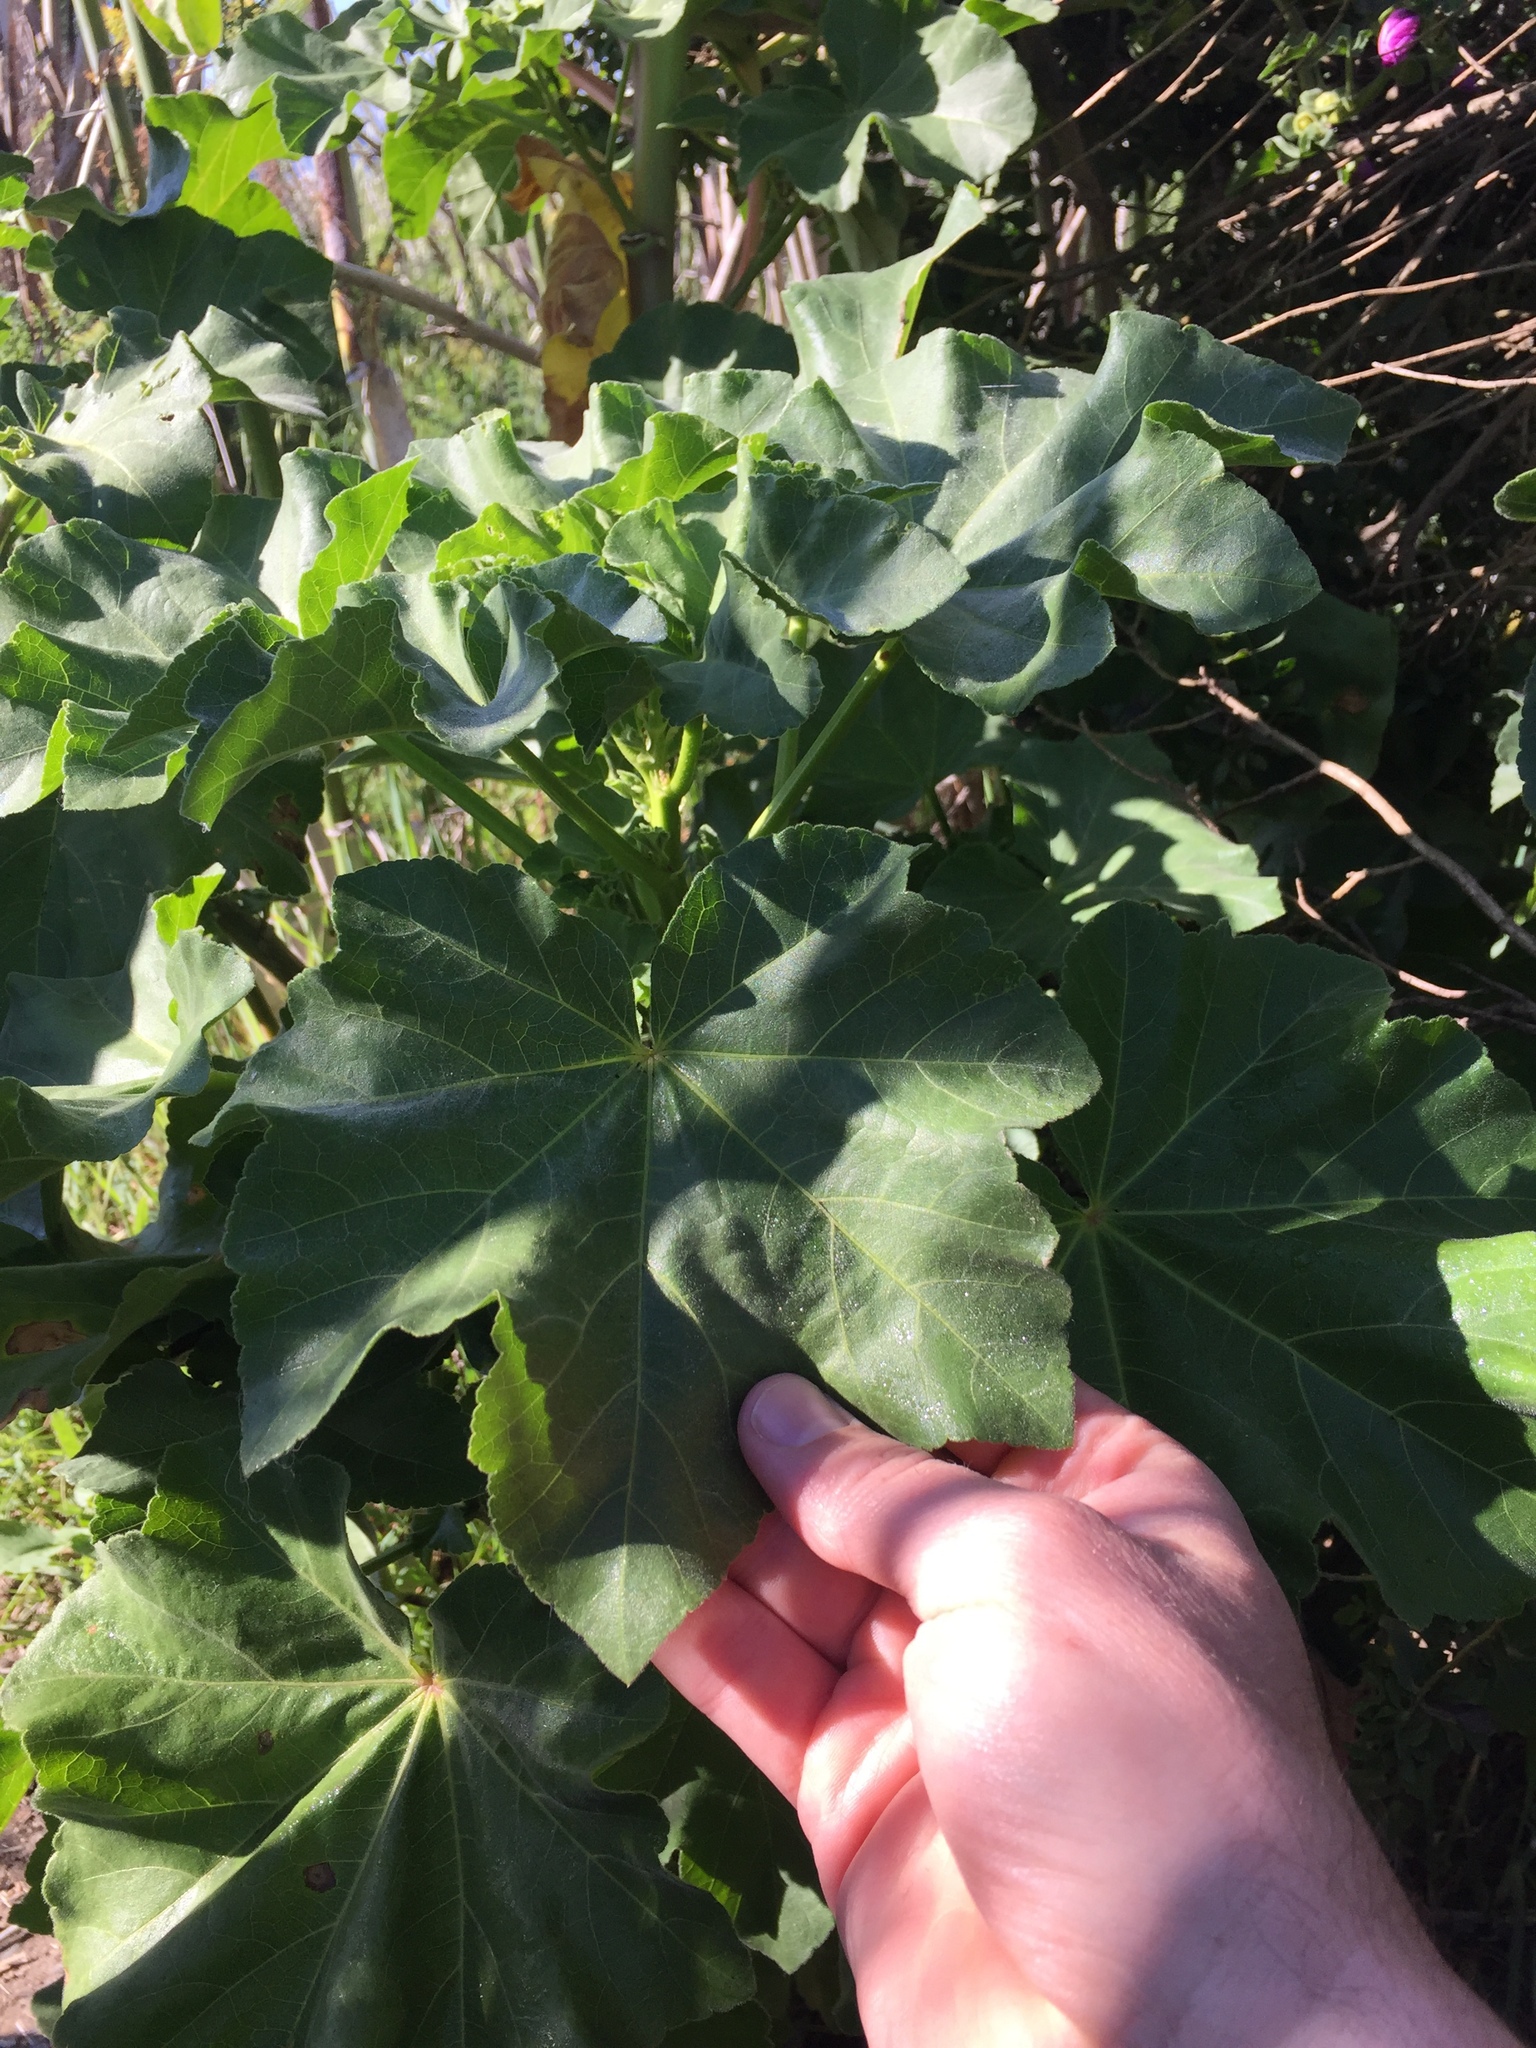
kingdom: Plantae
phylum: Tracheophyta
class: Magnoliopsida
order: Malvales
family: Malvaceae
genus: Malva
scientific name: Malva arborea
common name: Tree mallow
